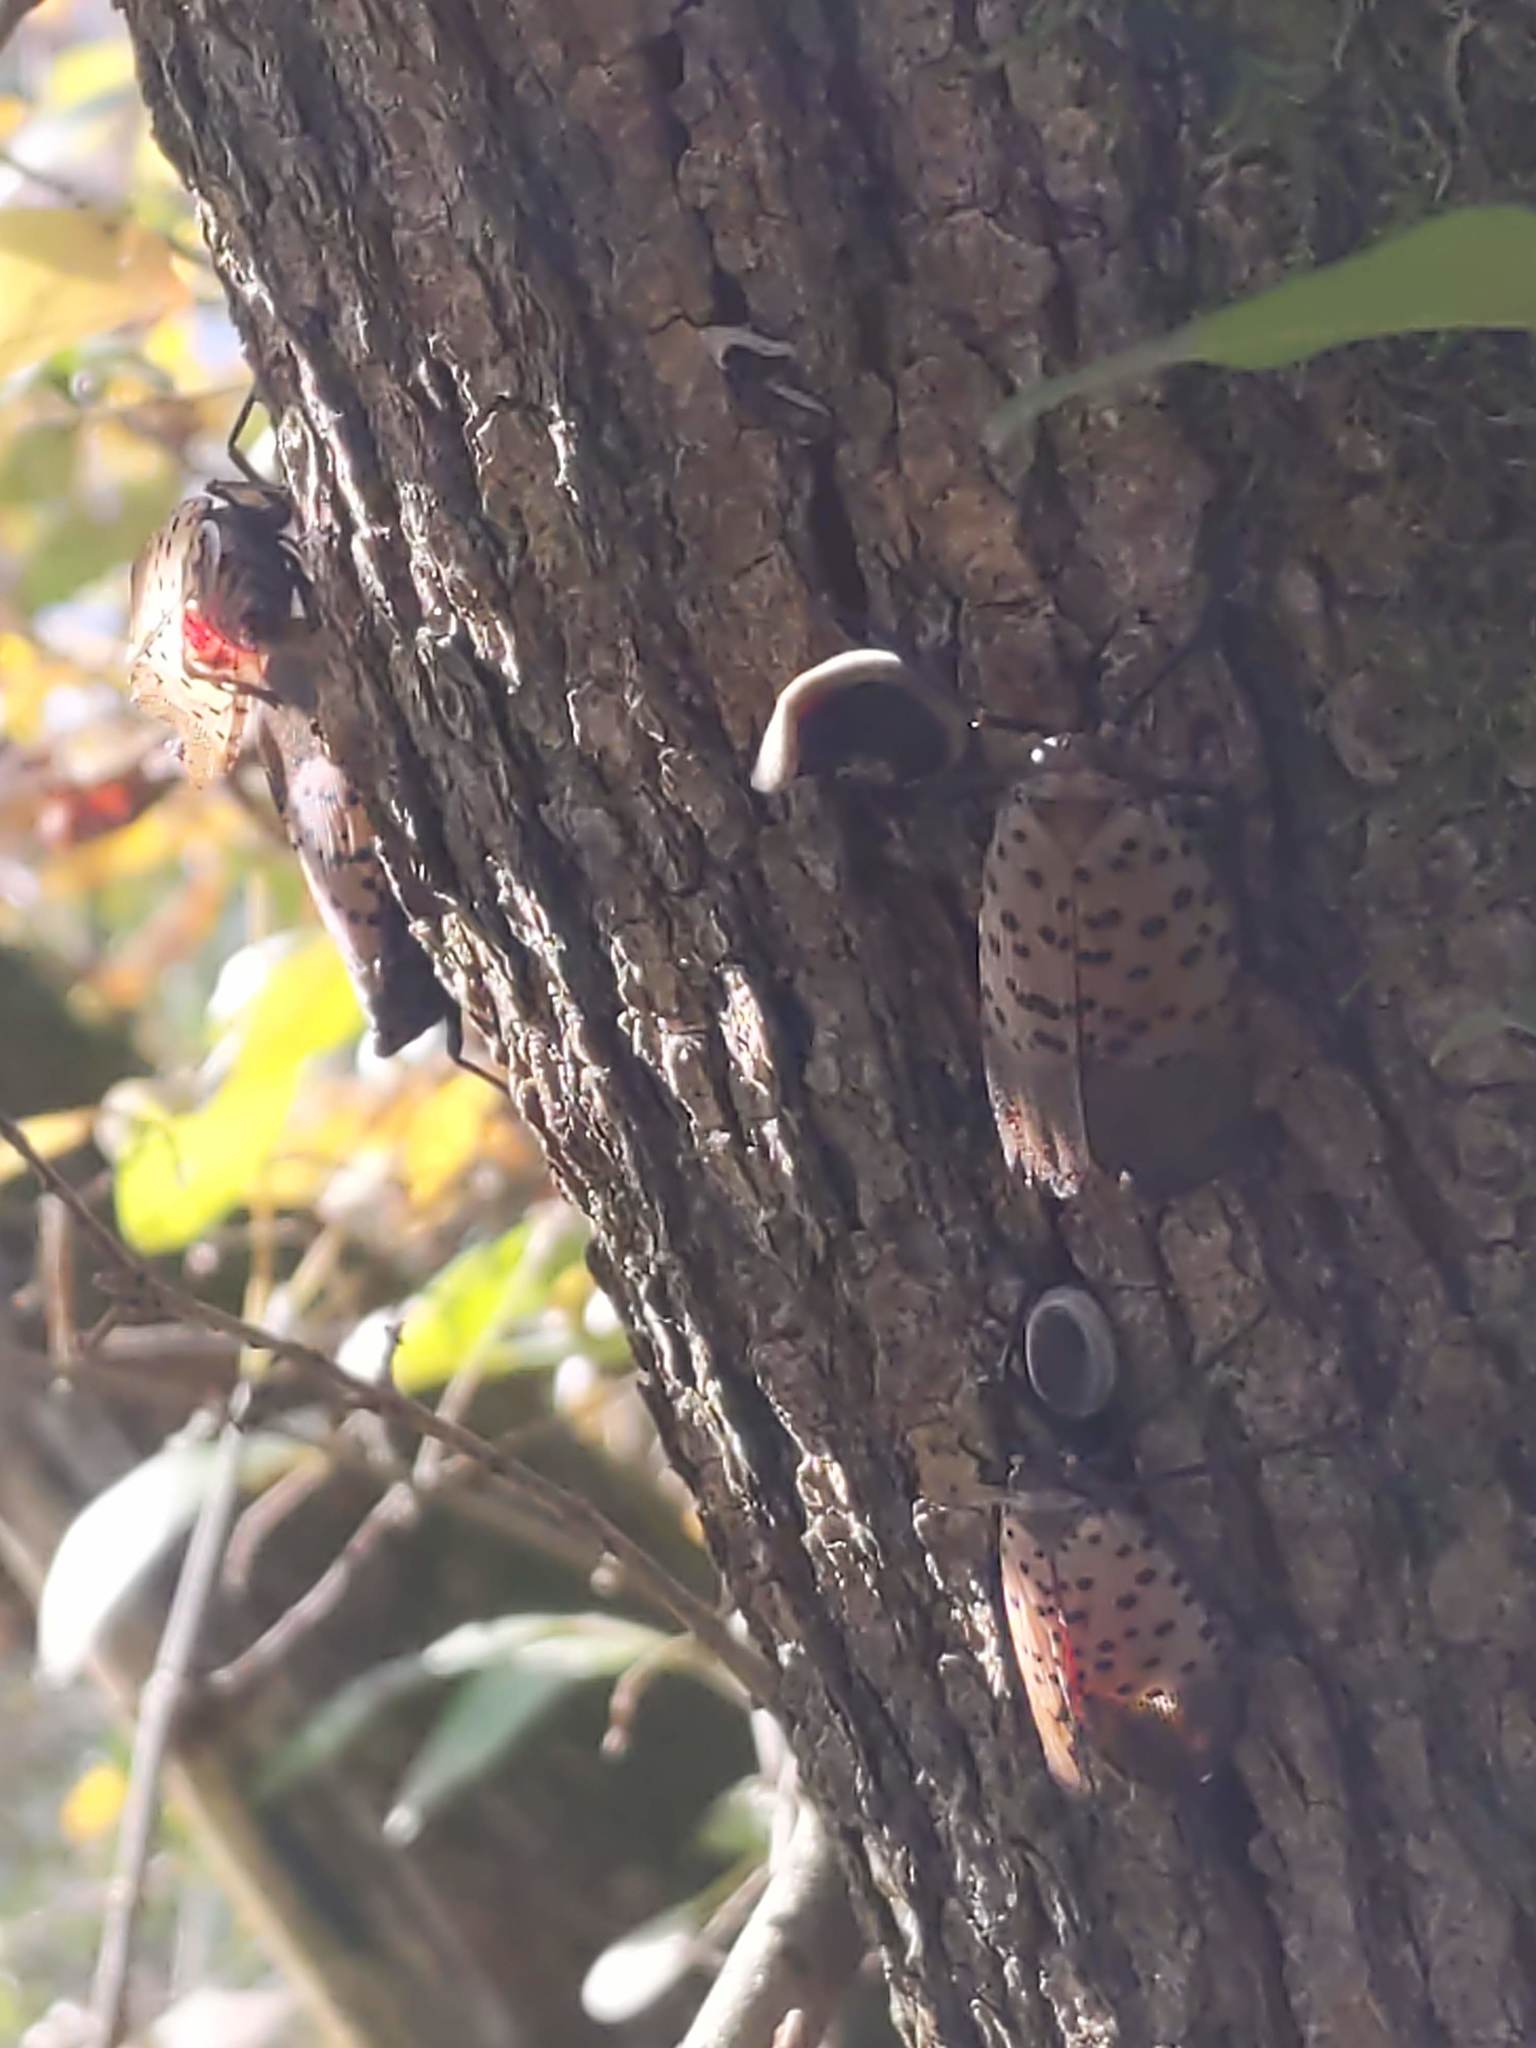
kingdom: Animalia
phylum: Arthropoda
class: Insecta
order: Hemiptera
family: Fulgoridae
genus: Lycorma
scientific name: Lycorma delicatula
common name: Spotted lanternfly
